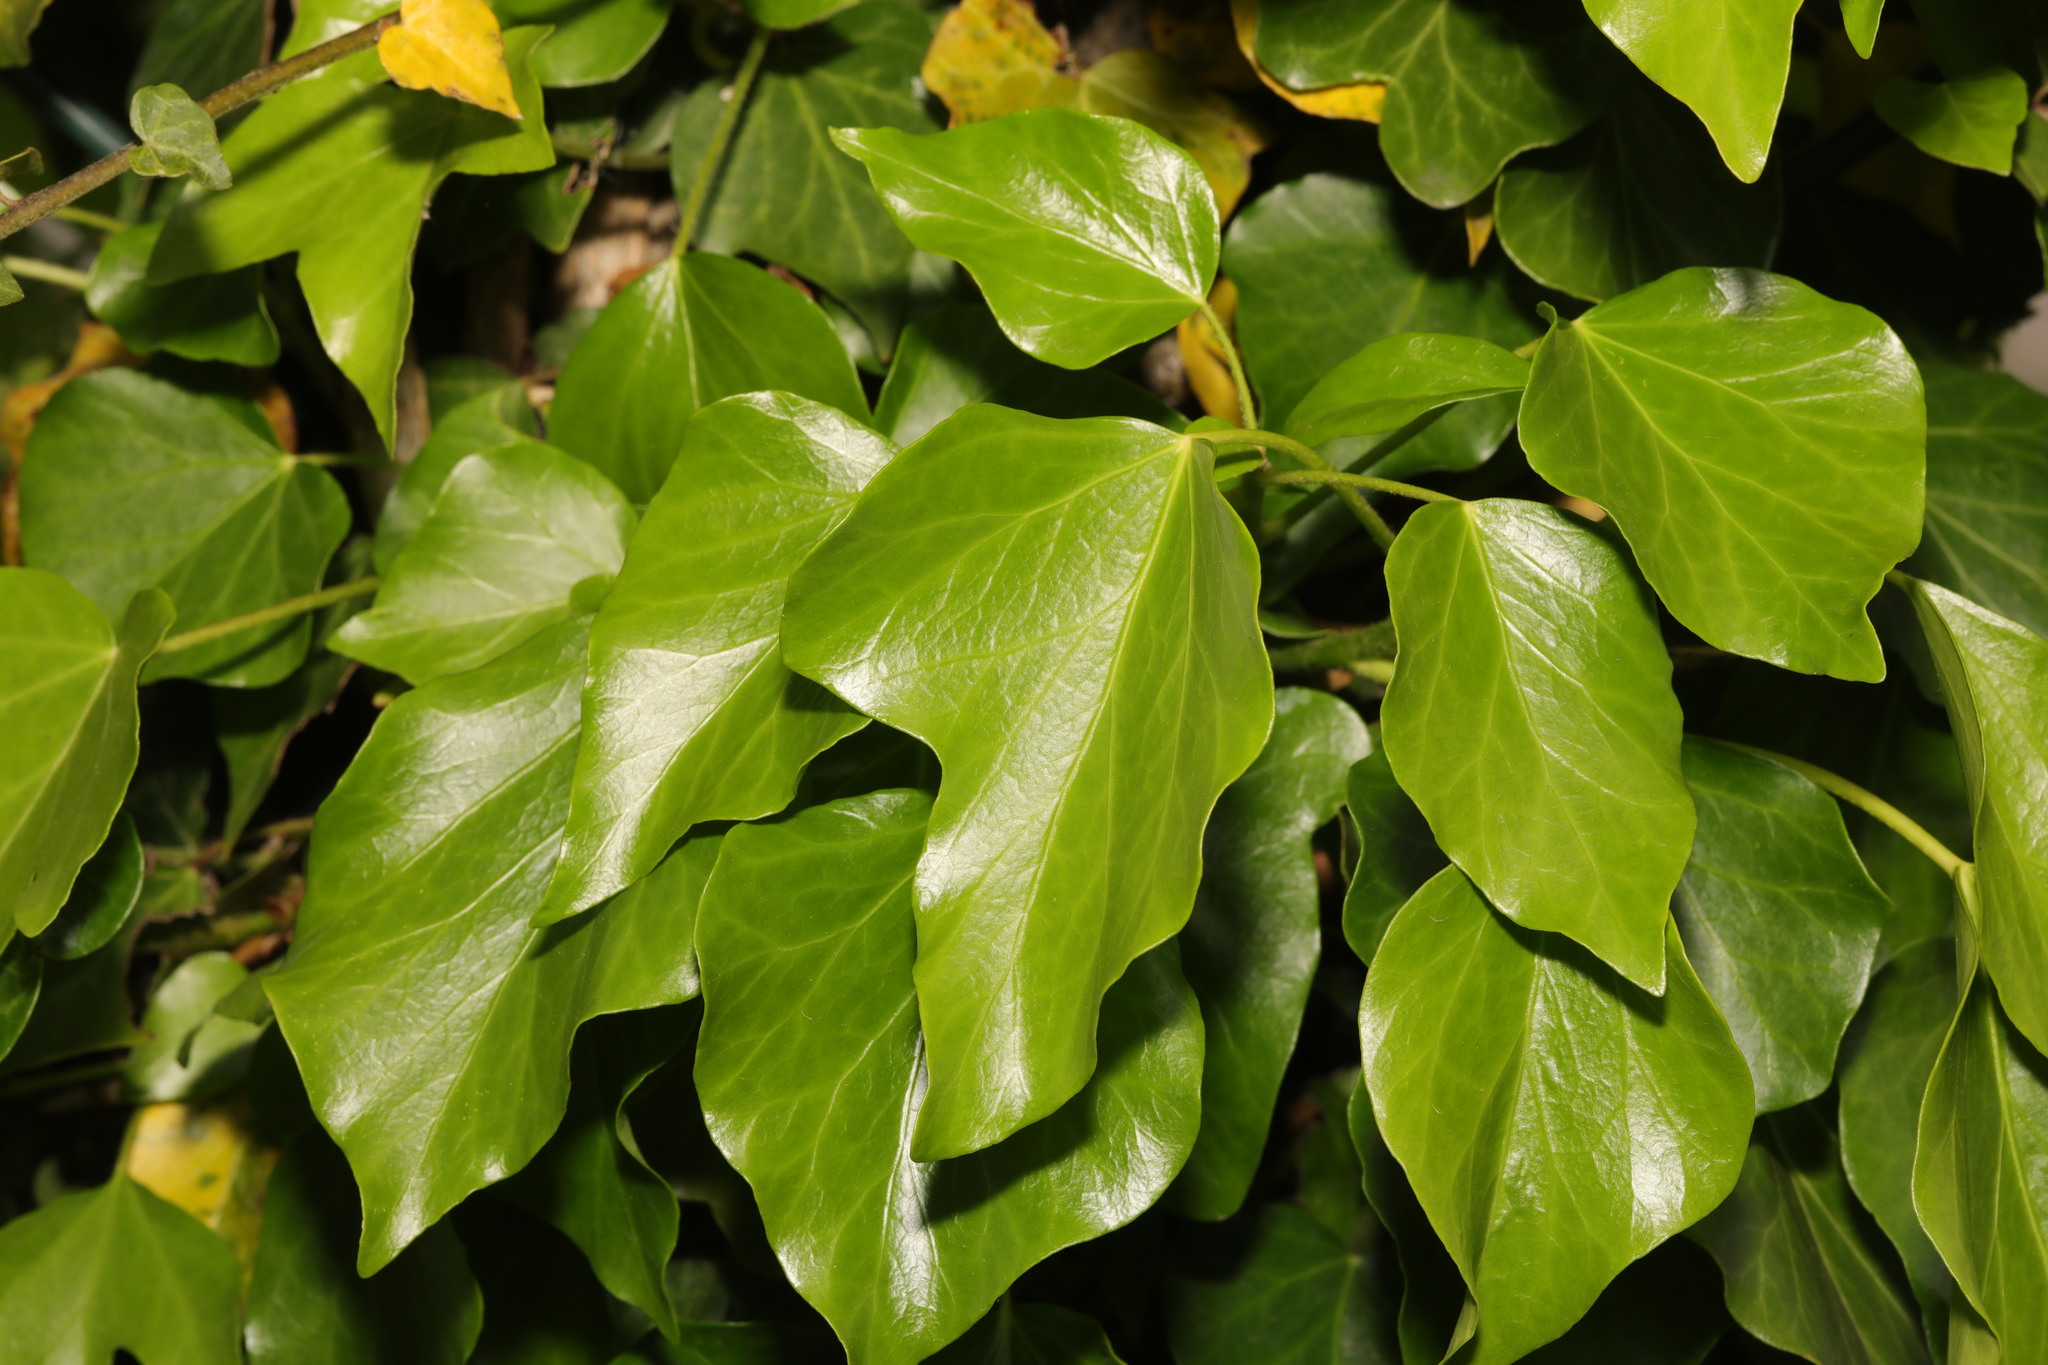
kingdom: Plantae
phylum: Tracheophyta
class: Magnoliopsida
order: Apiales
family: Araliaceae
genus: Hedera
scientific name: Hedera helix
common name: Ivy
